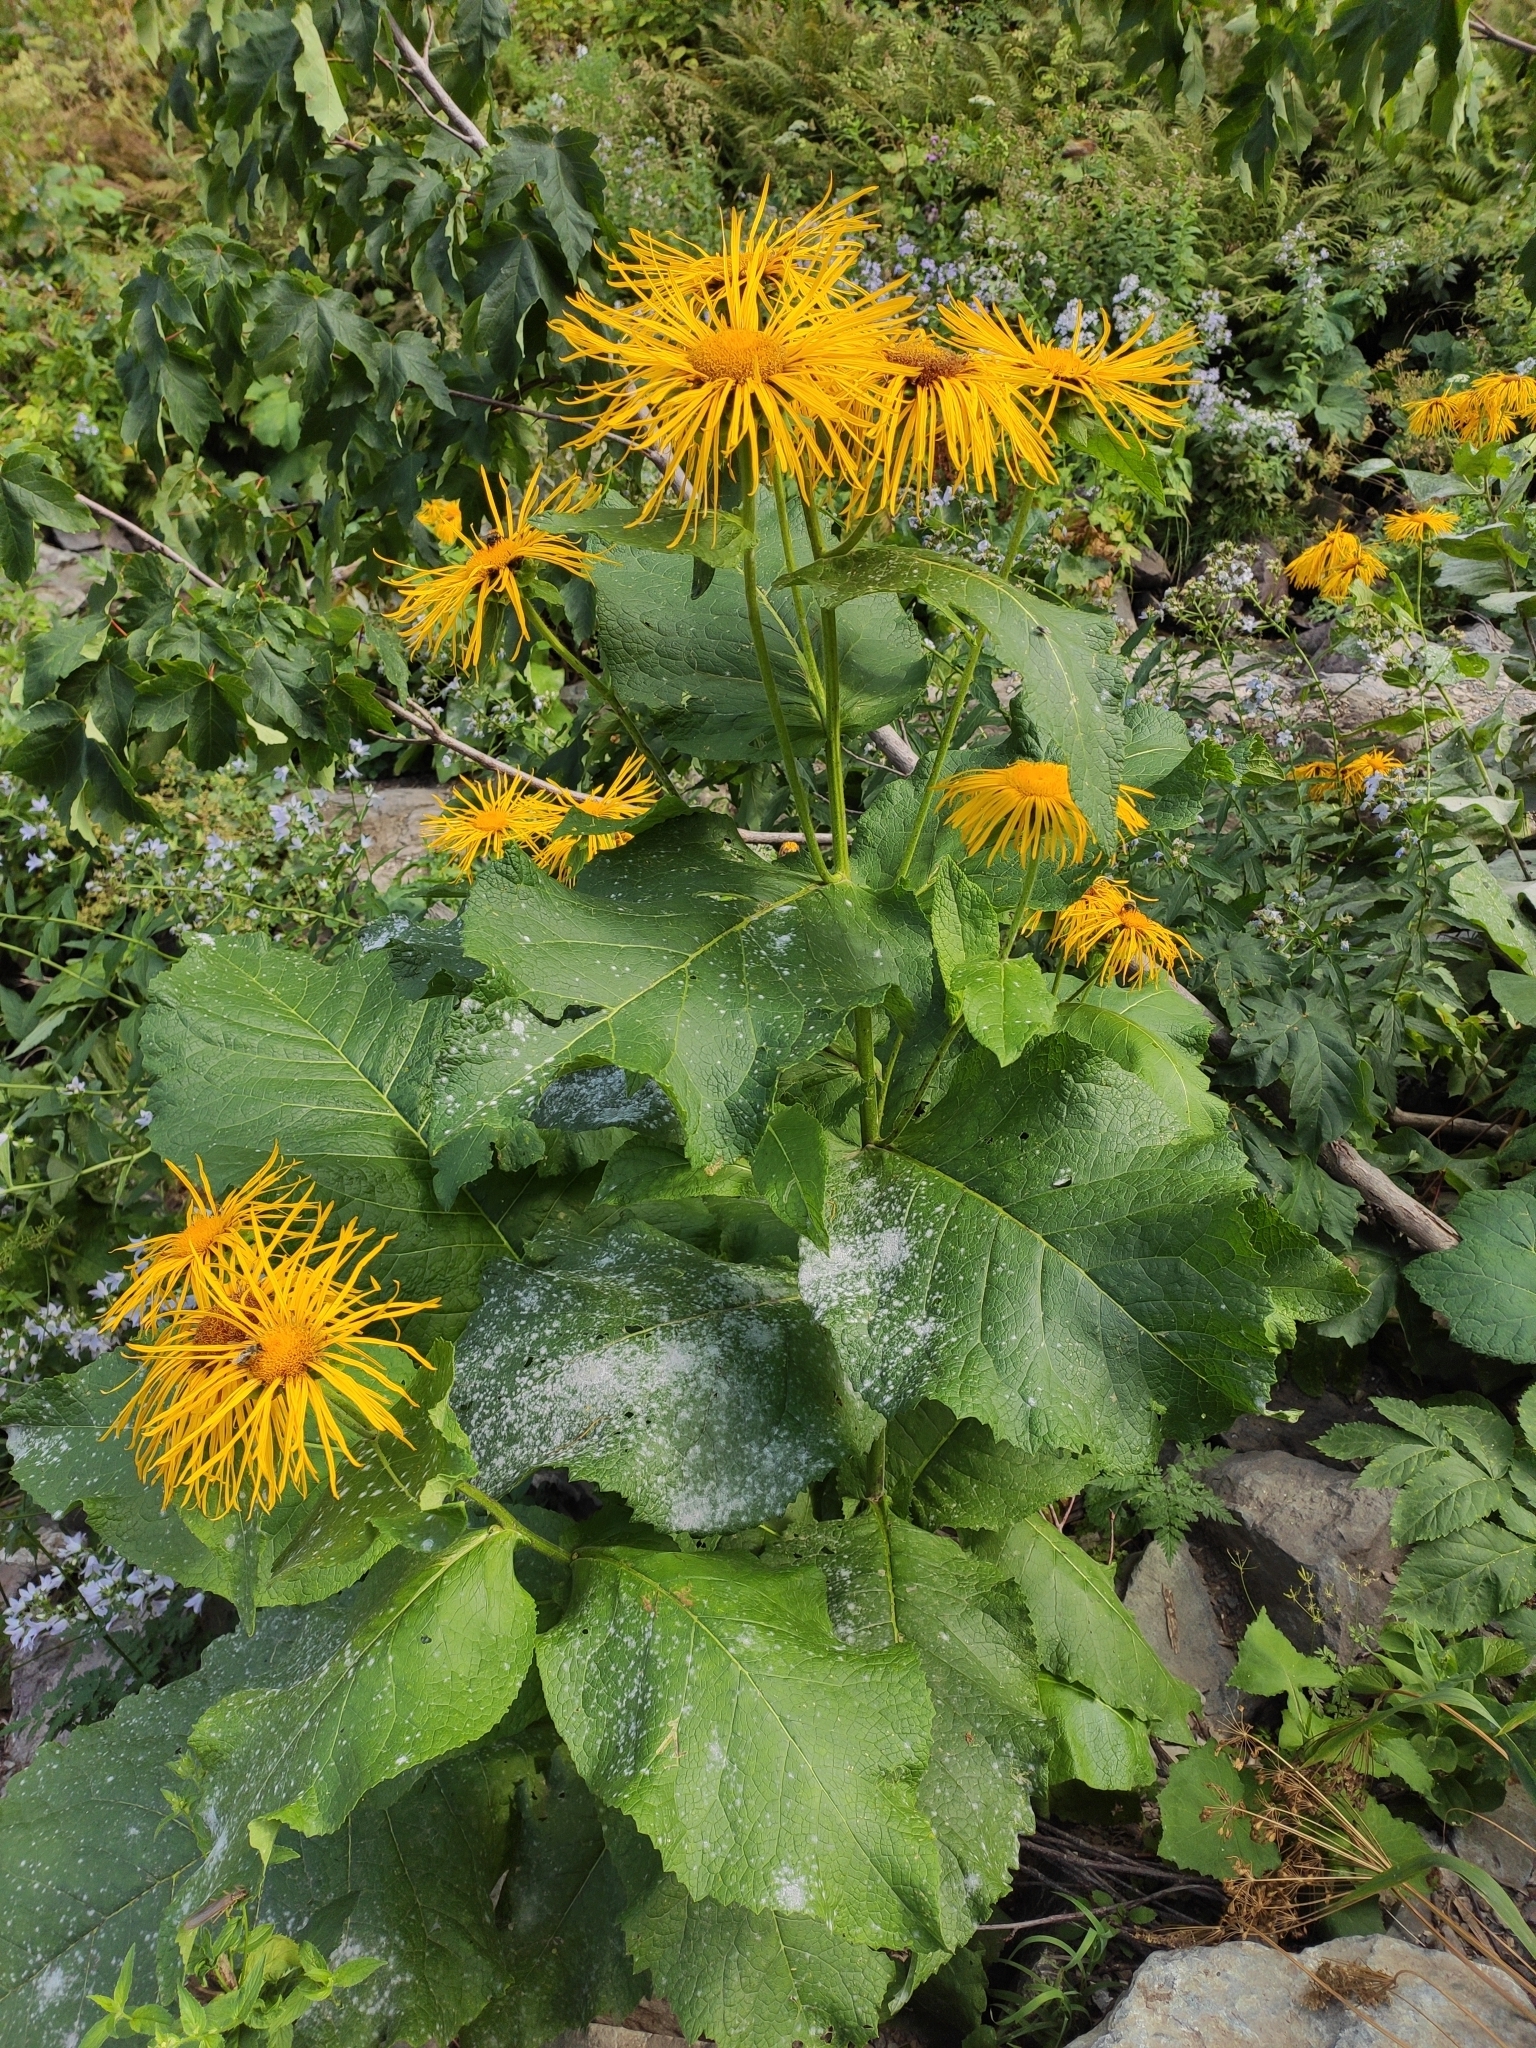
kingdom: Plantae
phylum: Tracheophyta
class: Magnoliopsida
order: Asterales
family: Asteraceae
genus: Telekia
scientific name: Telekia speciosa
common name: Yellow oxeye
